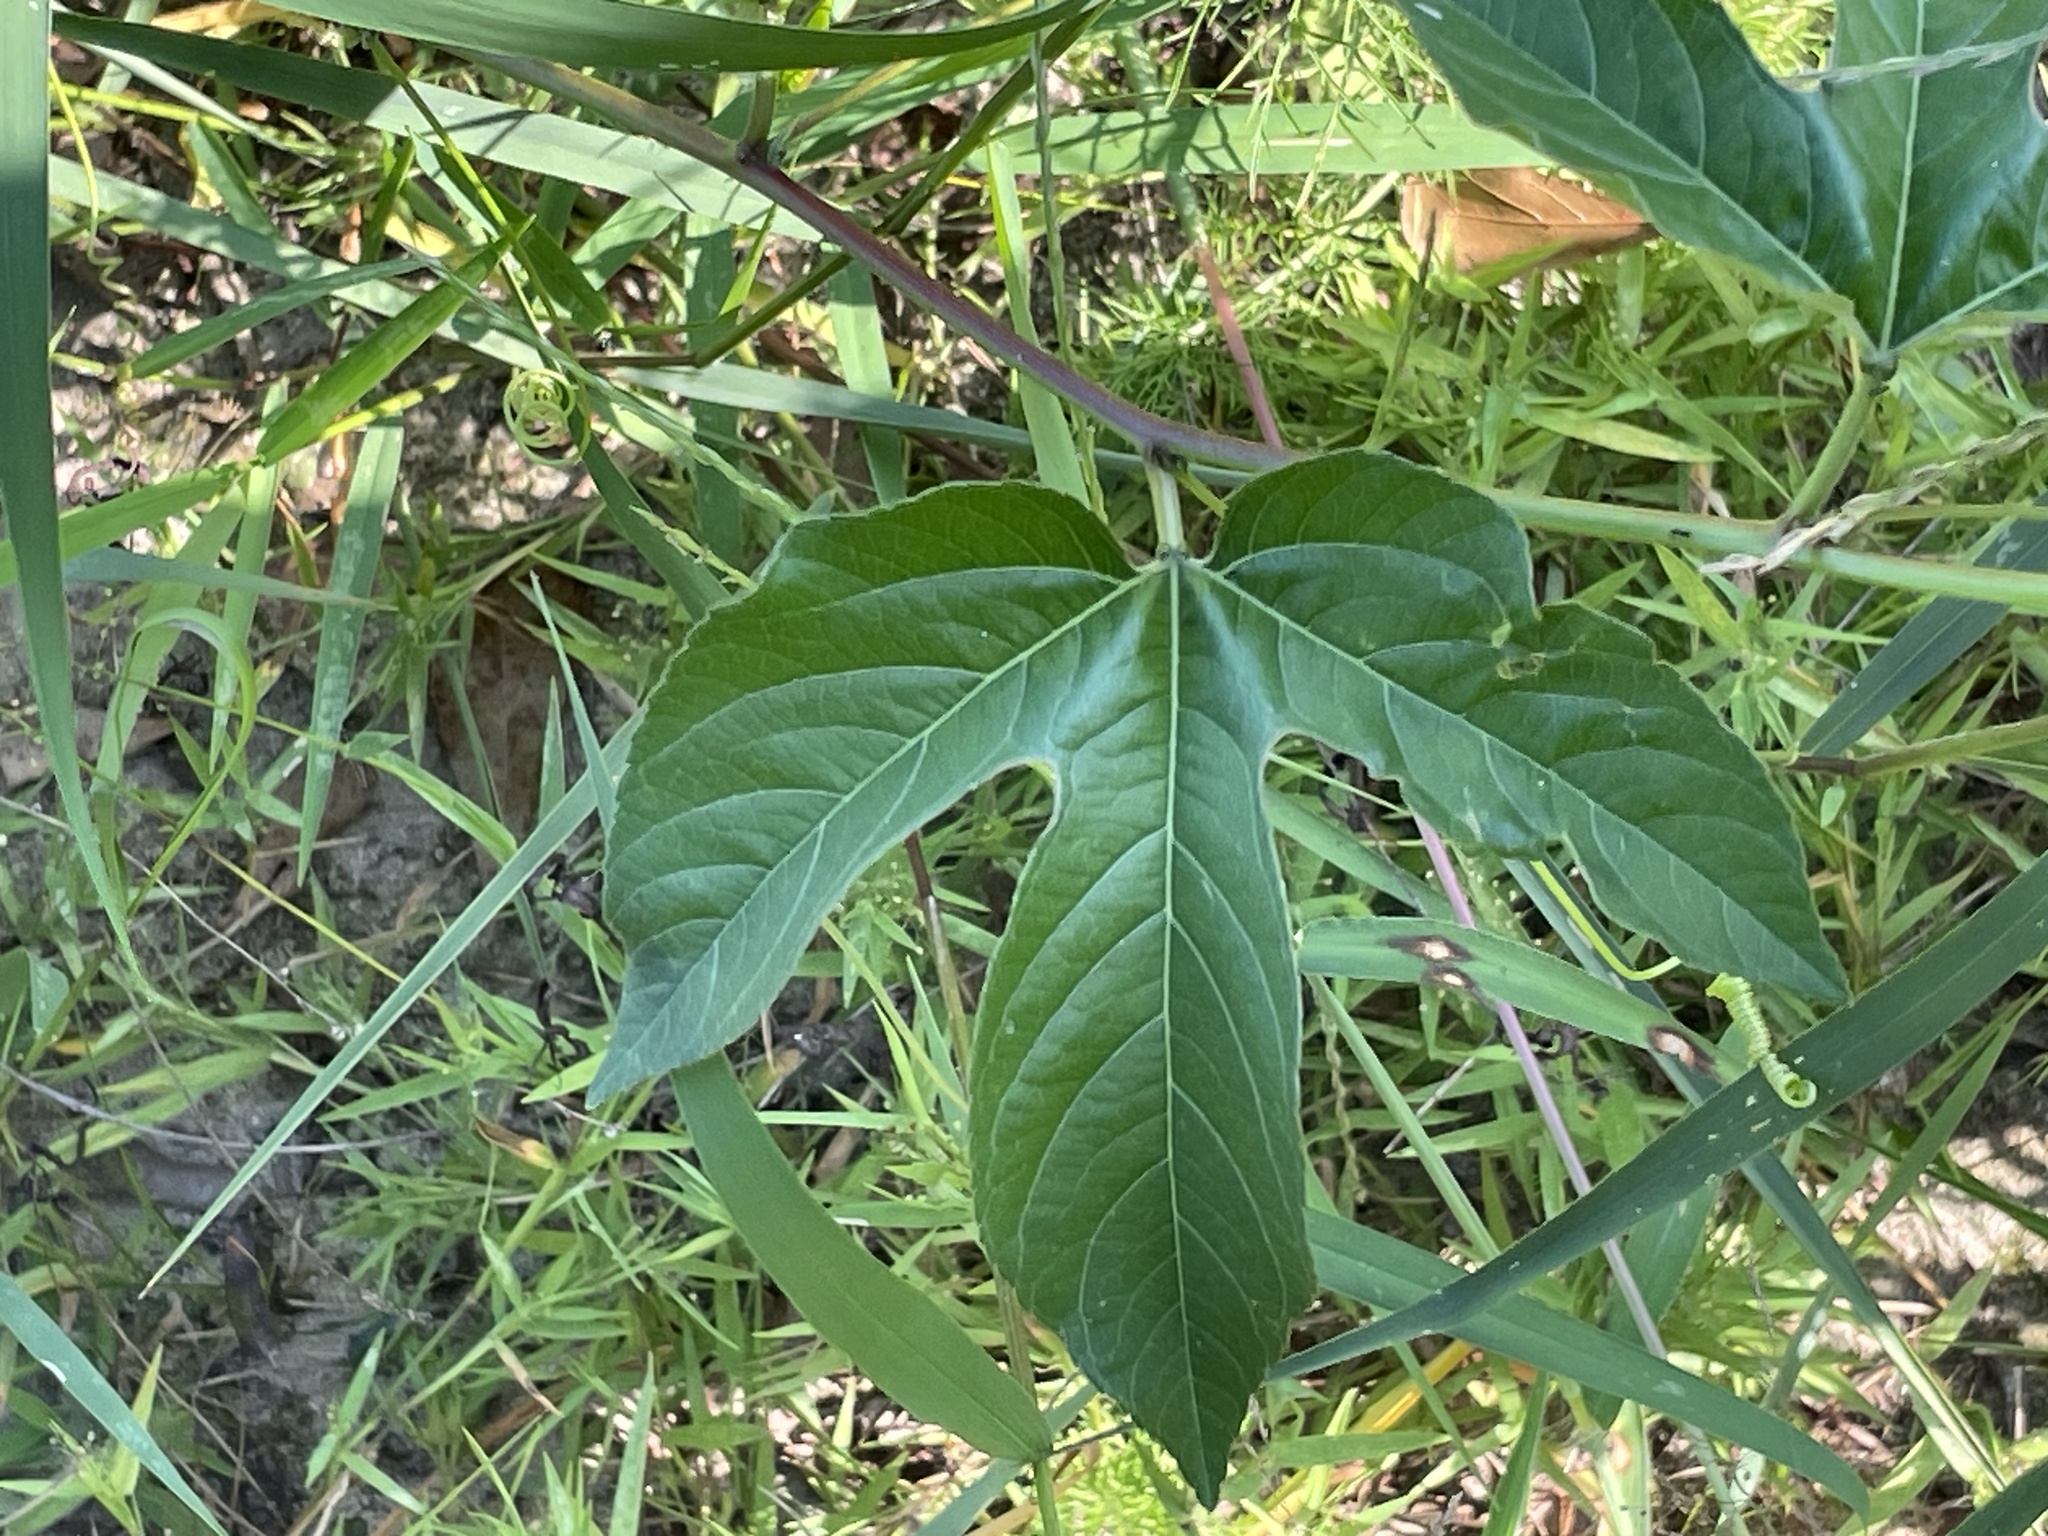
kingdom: Plantae
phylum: Tracheophyta
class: Magnoliopsida
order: Malpighiales
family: Passifloraceae
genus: Passiflora
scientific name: Passiflora incarnata
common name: Apricot-vine
